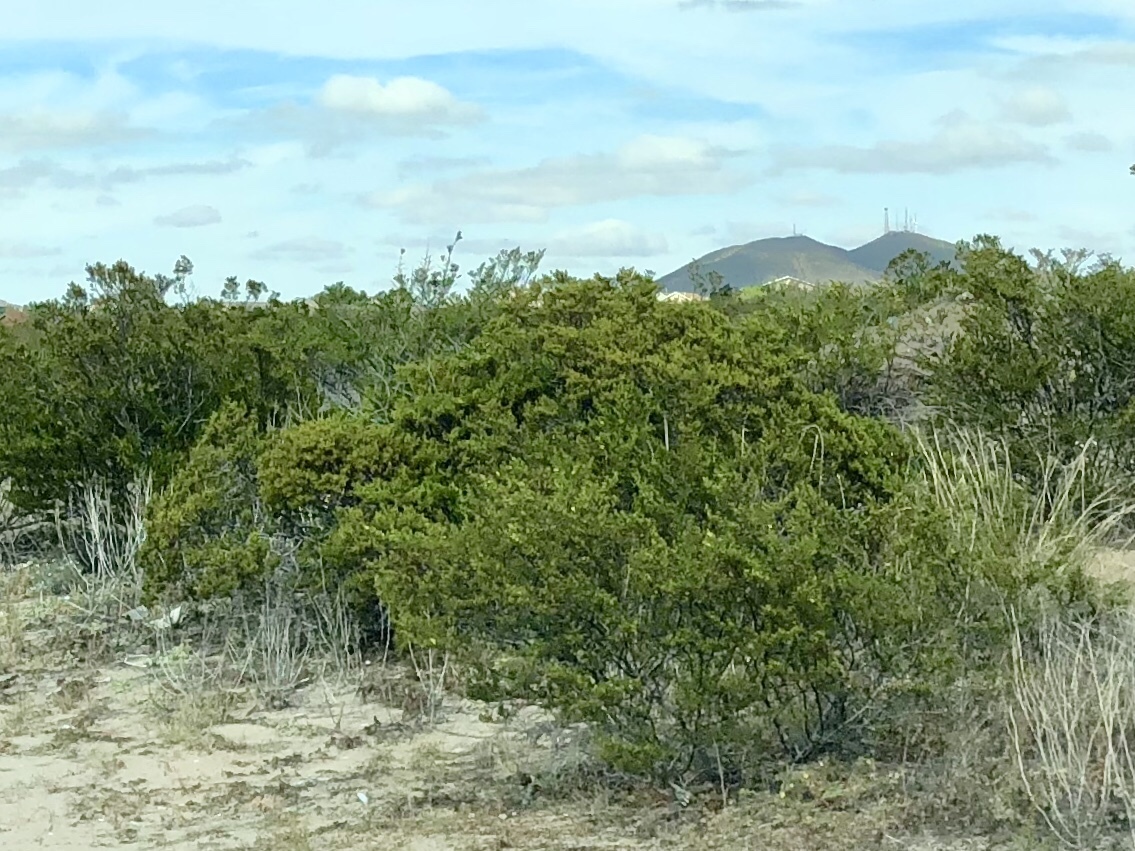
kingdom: Plantae
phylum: Tracheophyta
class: Magnoliopsida
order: Zygophyllales
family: Zygophyllaceae
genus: Larrea
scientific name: Larrea tridentata
